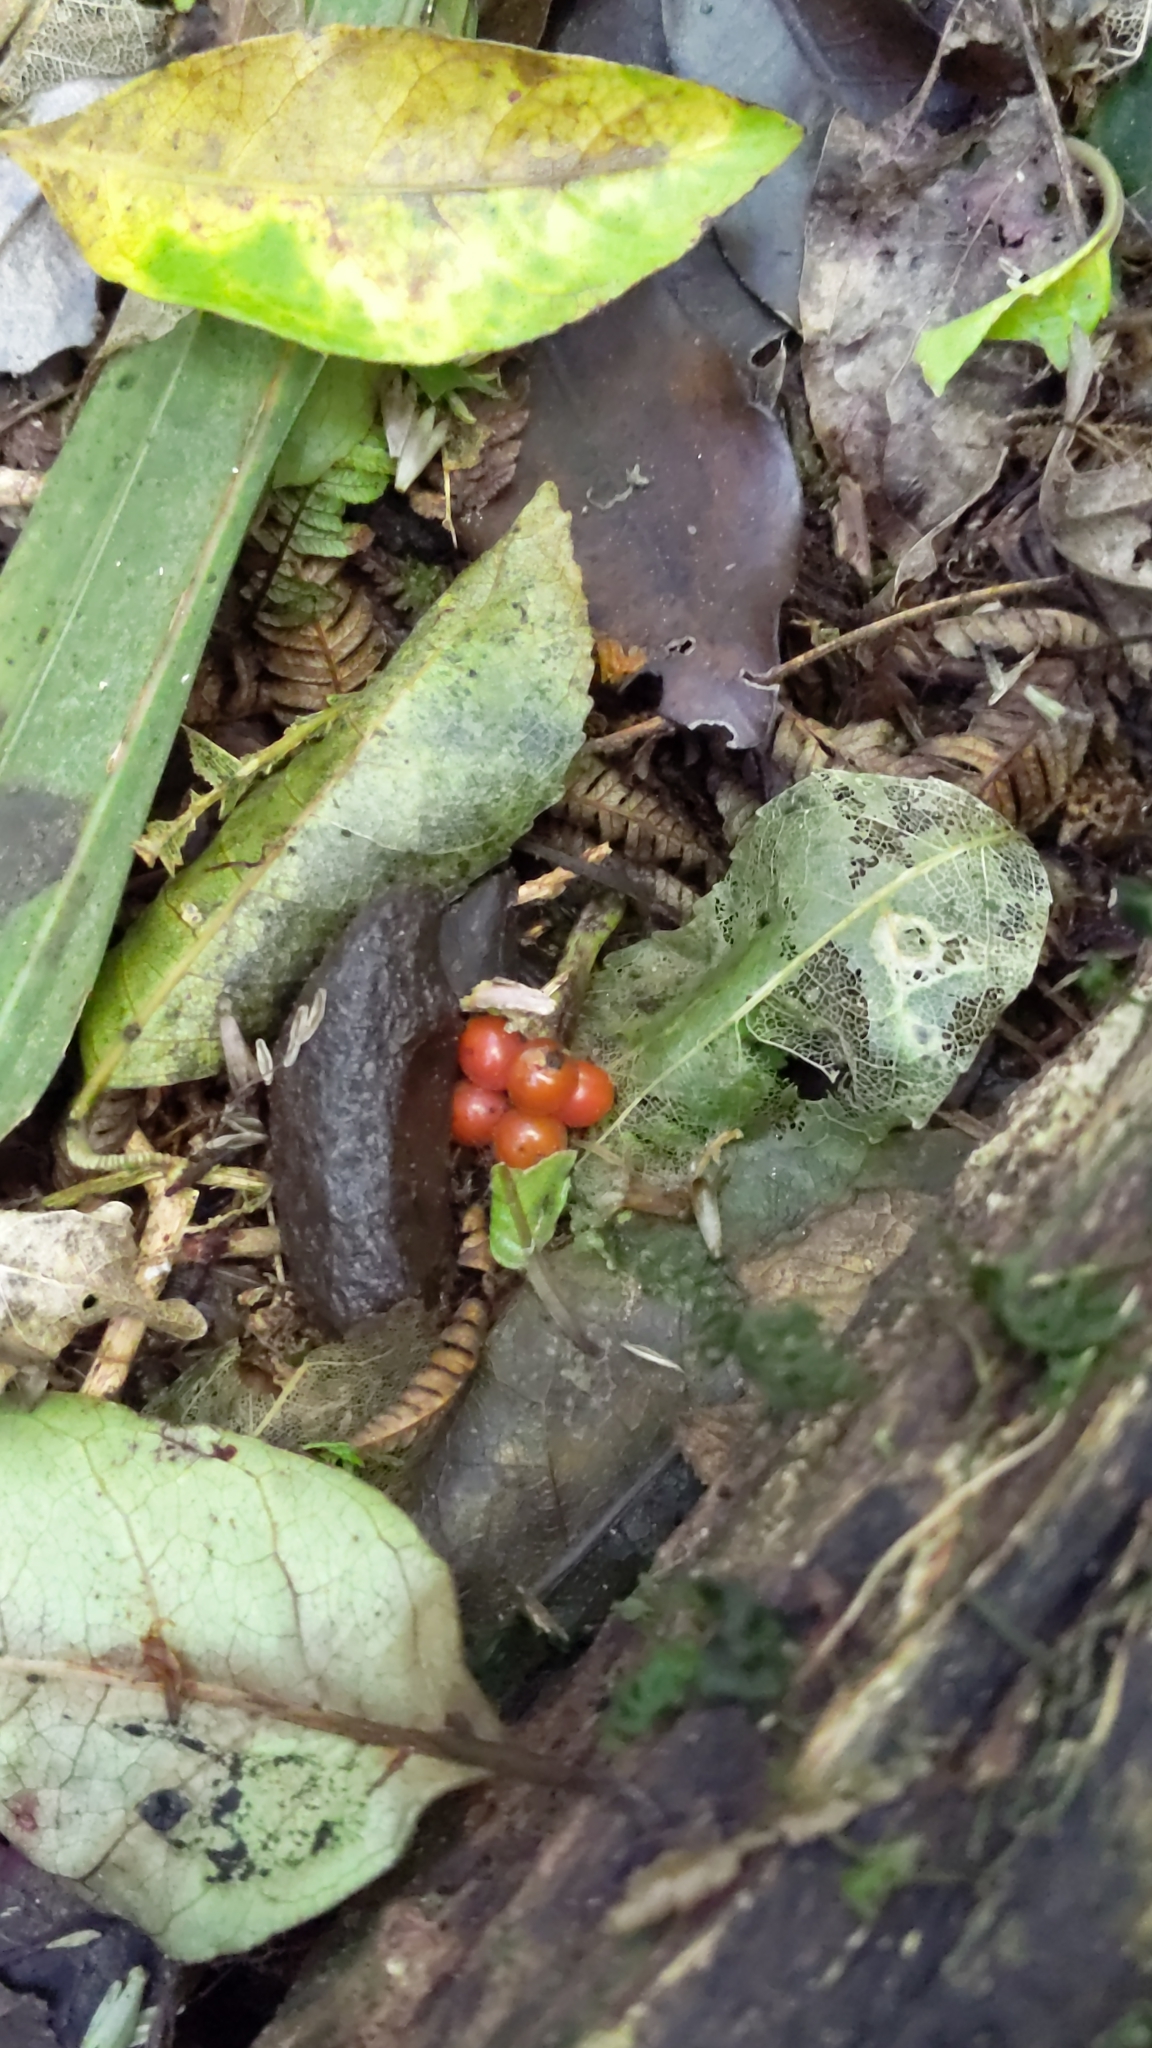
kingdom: Plantae
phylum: Tracheophyta
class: Magnoliopsida
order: Gentianales
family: Rubiaceae
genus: Coprosma
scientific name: Coprosma autumnalis
